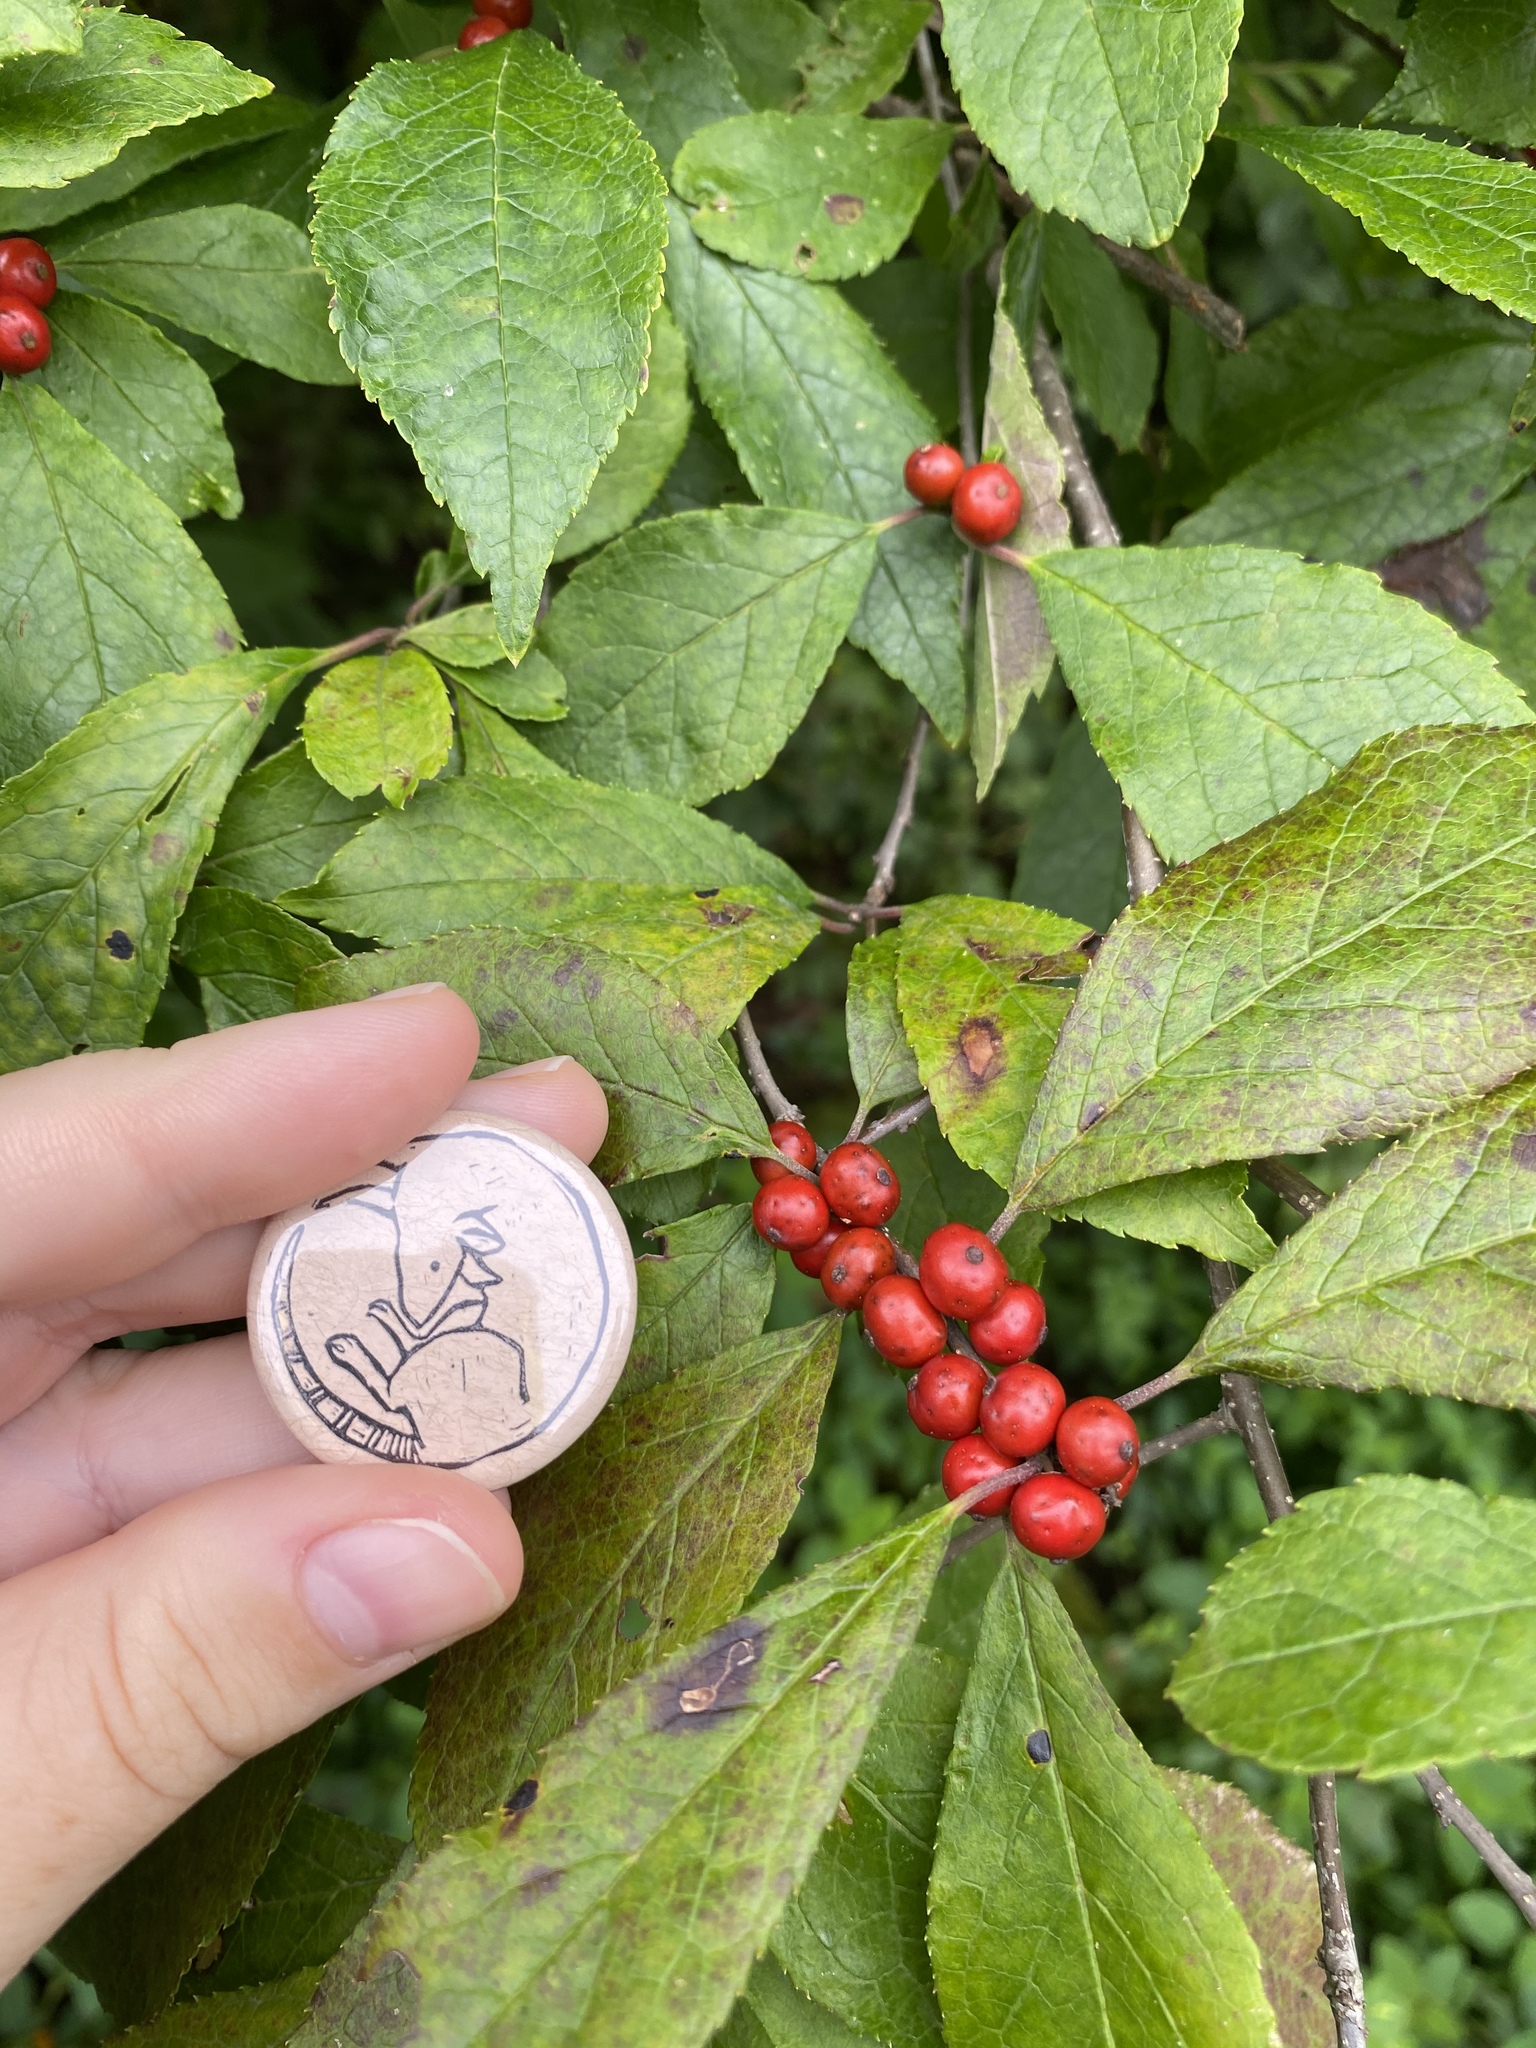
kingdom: Plantae
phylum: Tracheophyta
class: Magnoliopsida
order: Aquifoliales
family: Aquifoliaceae
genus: Ilex
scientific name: Ilex verticillata
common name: Virginia winterberry
